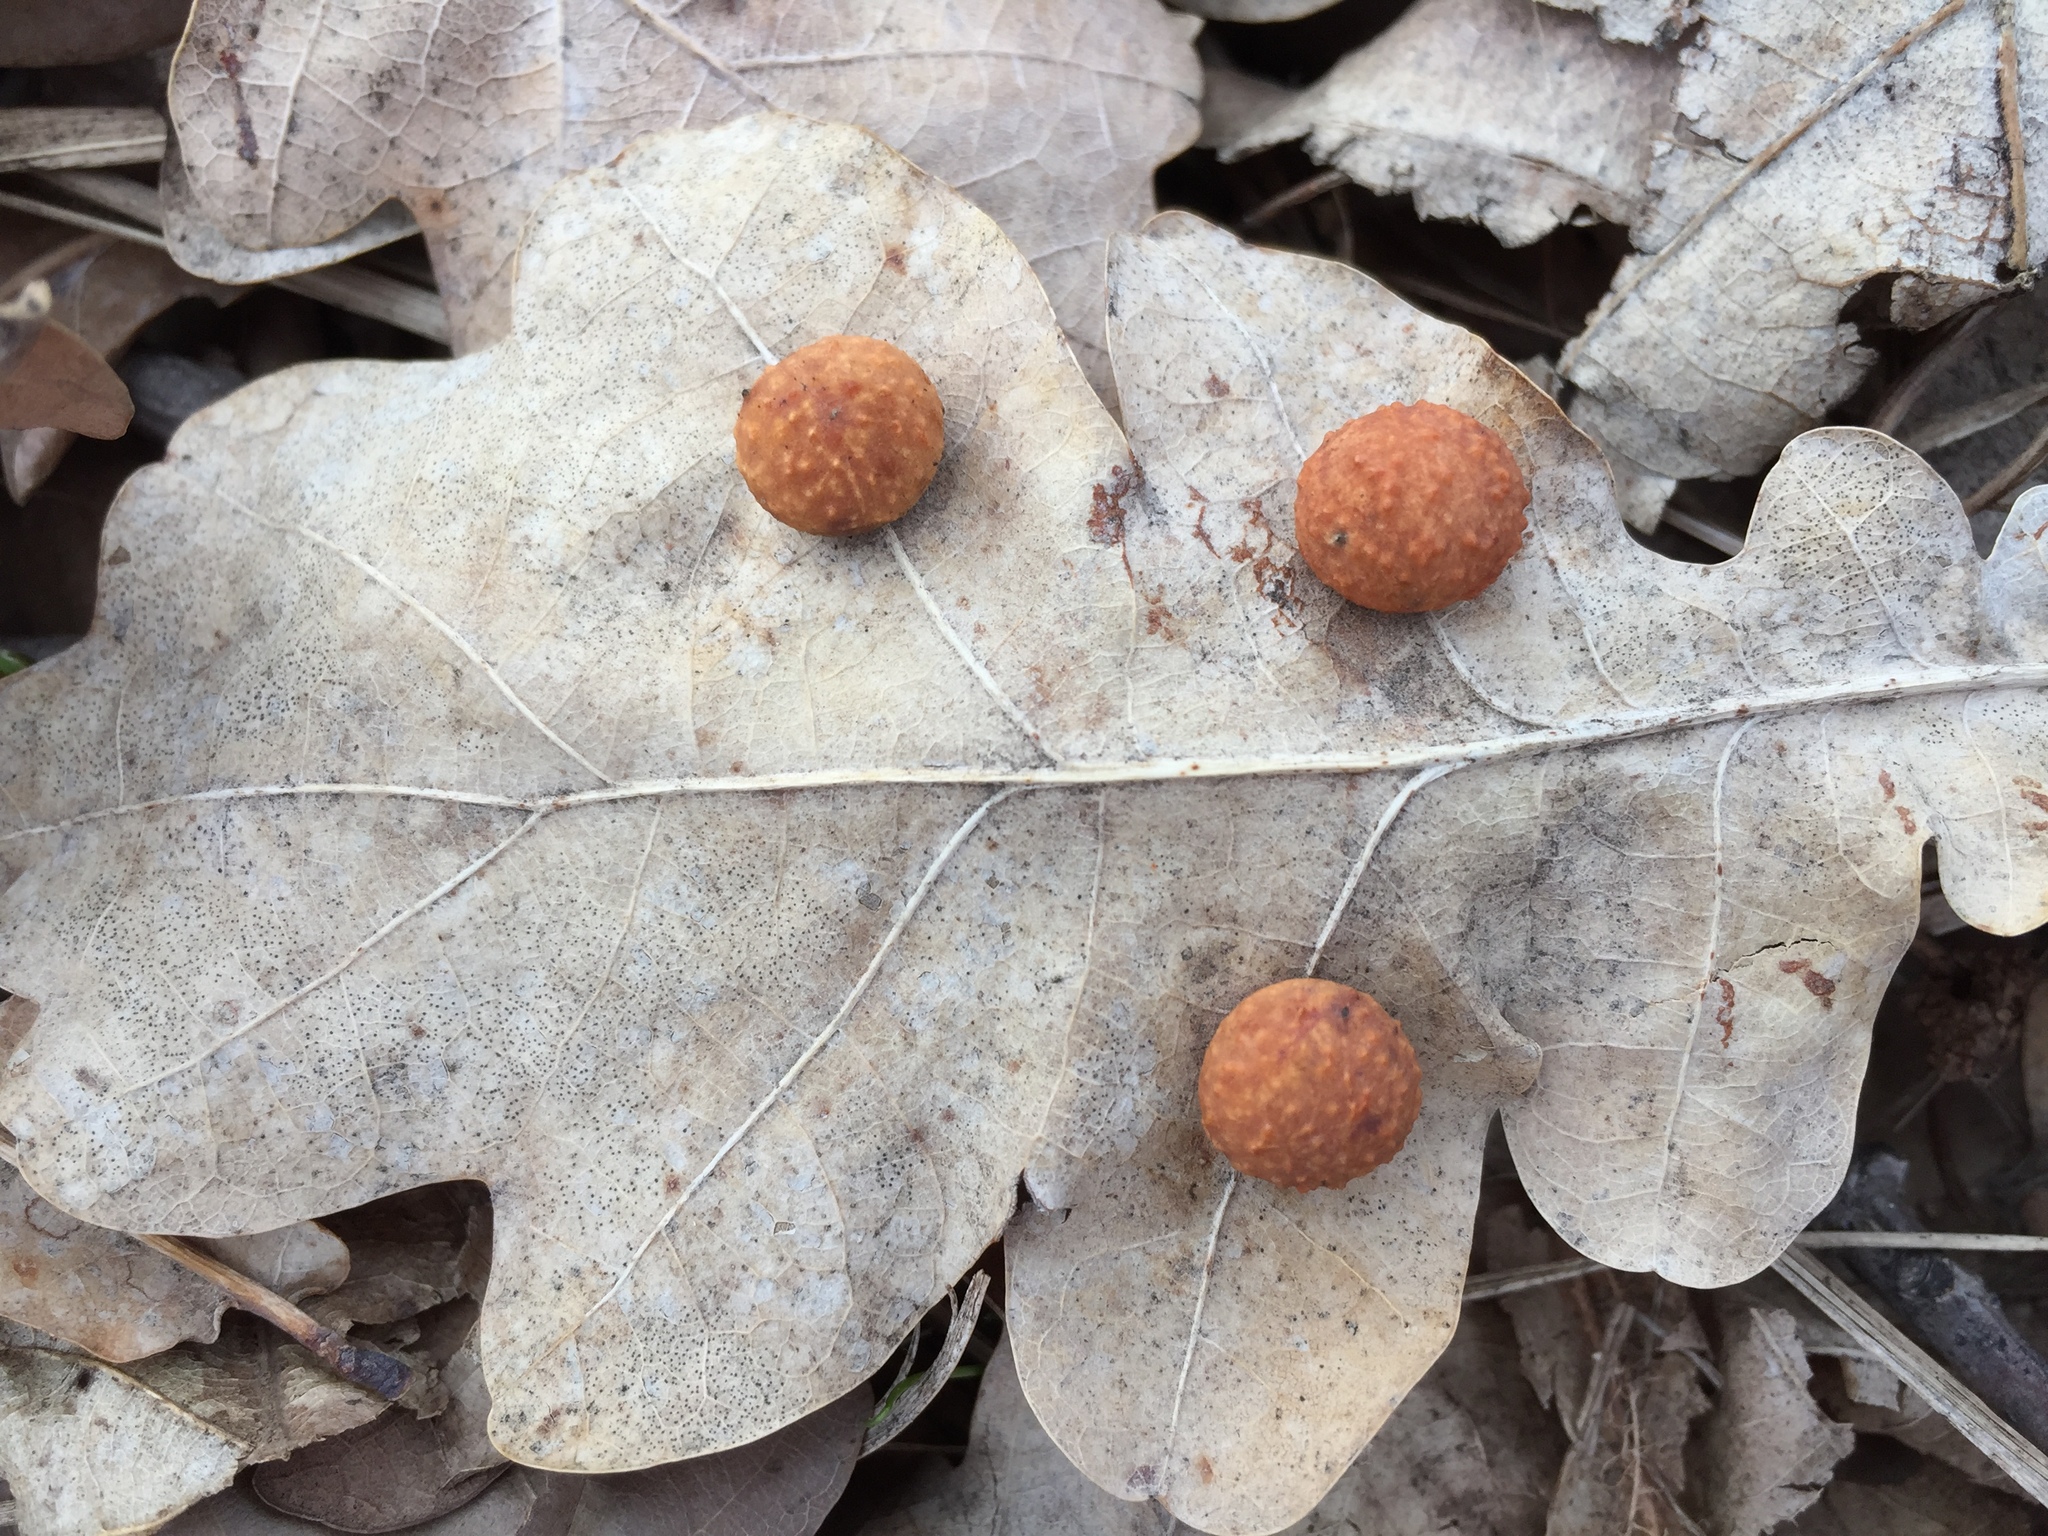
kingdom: Animalia
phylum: Arthropoda
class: Insecta
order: Hymenoptera
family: Cynipidae
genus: Cynips
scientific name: Cynips quercusfolii
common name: Cherry gall
